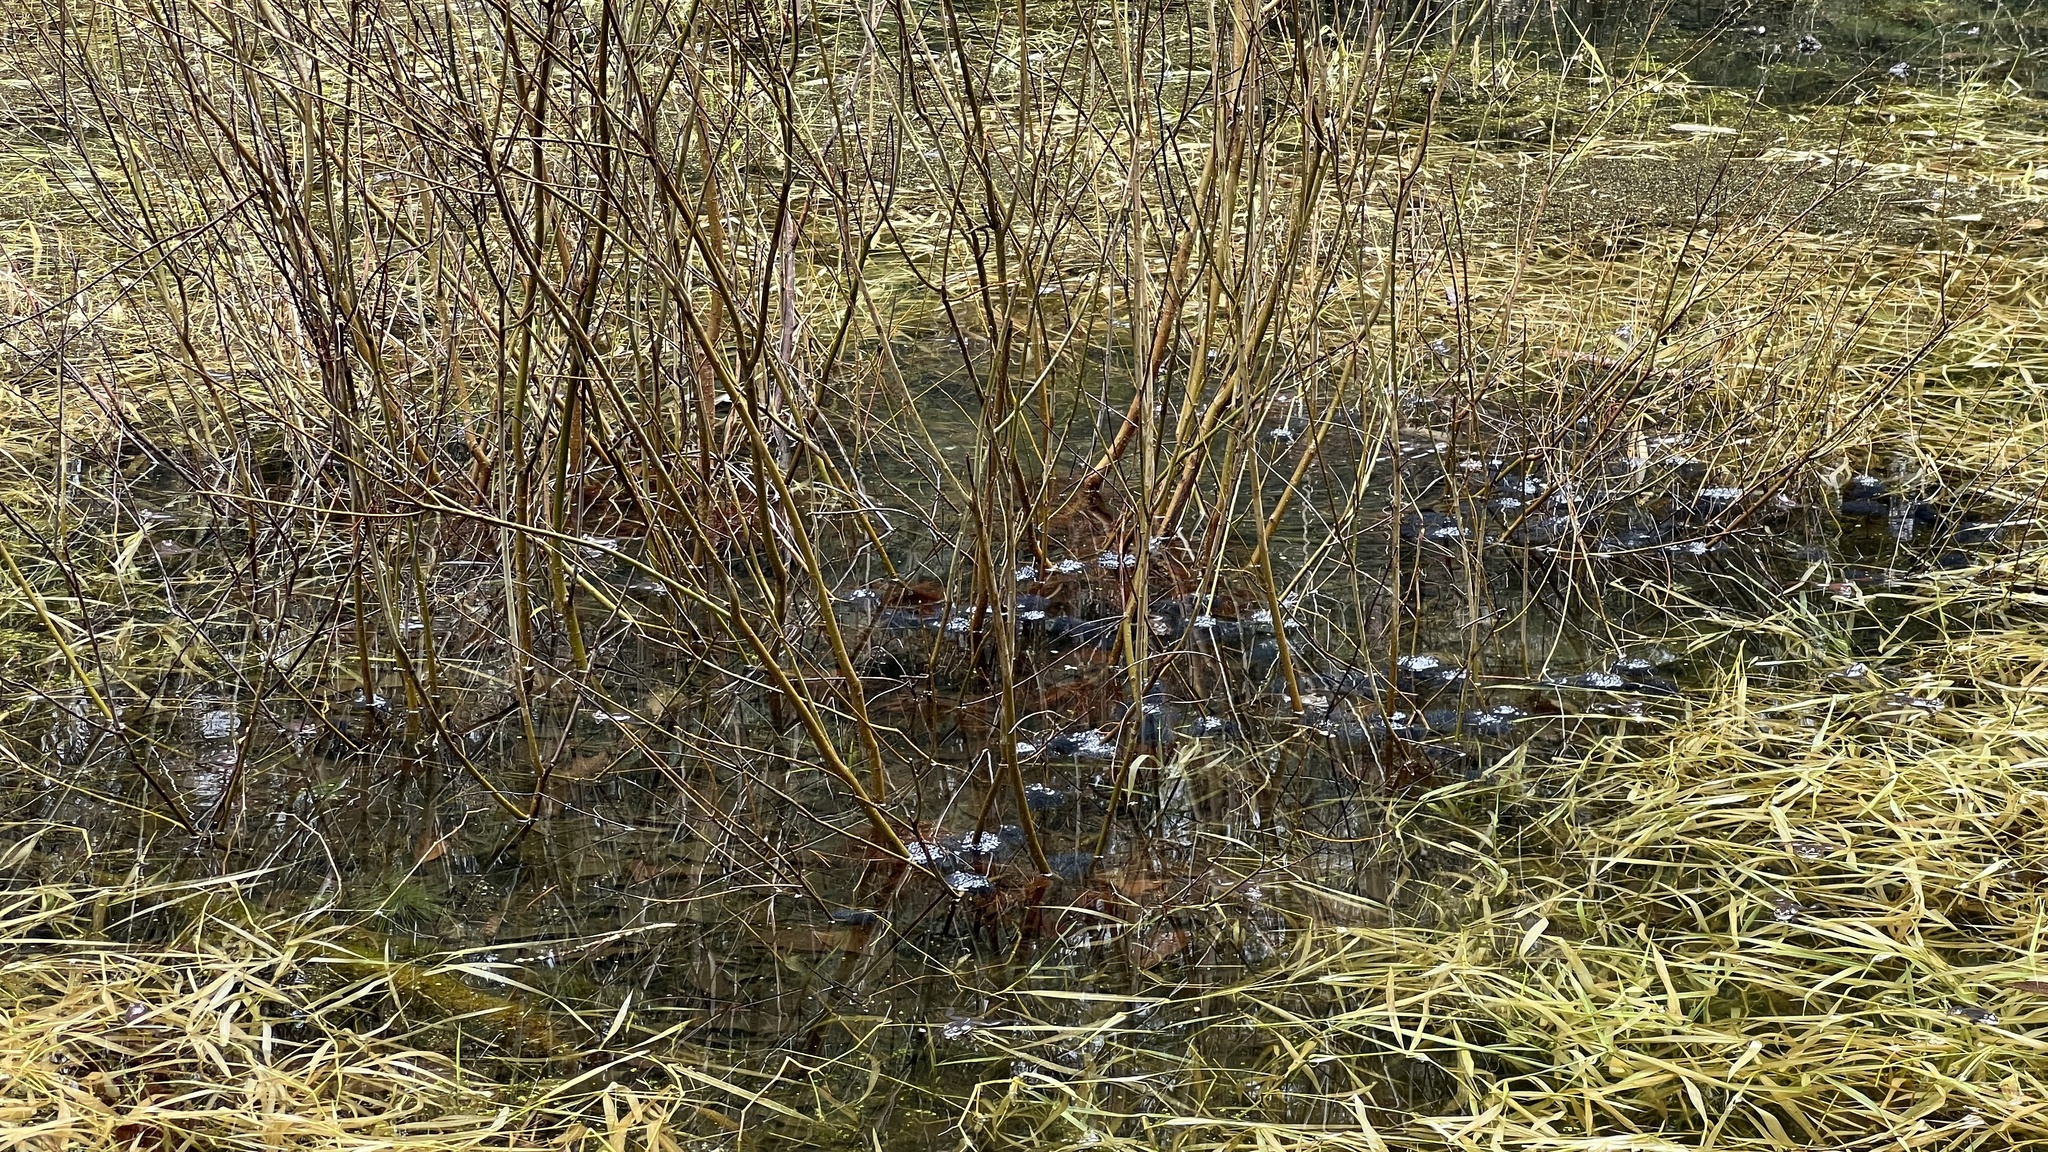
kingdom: Animalia
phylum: Chordata
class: Amphibia
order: Anura
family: Ranidae
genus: Lithobates
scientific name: Lithobates sylvaticus
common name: Wood frog
